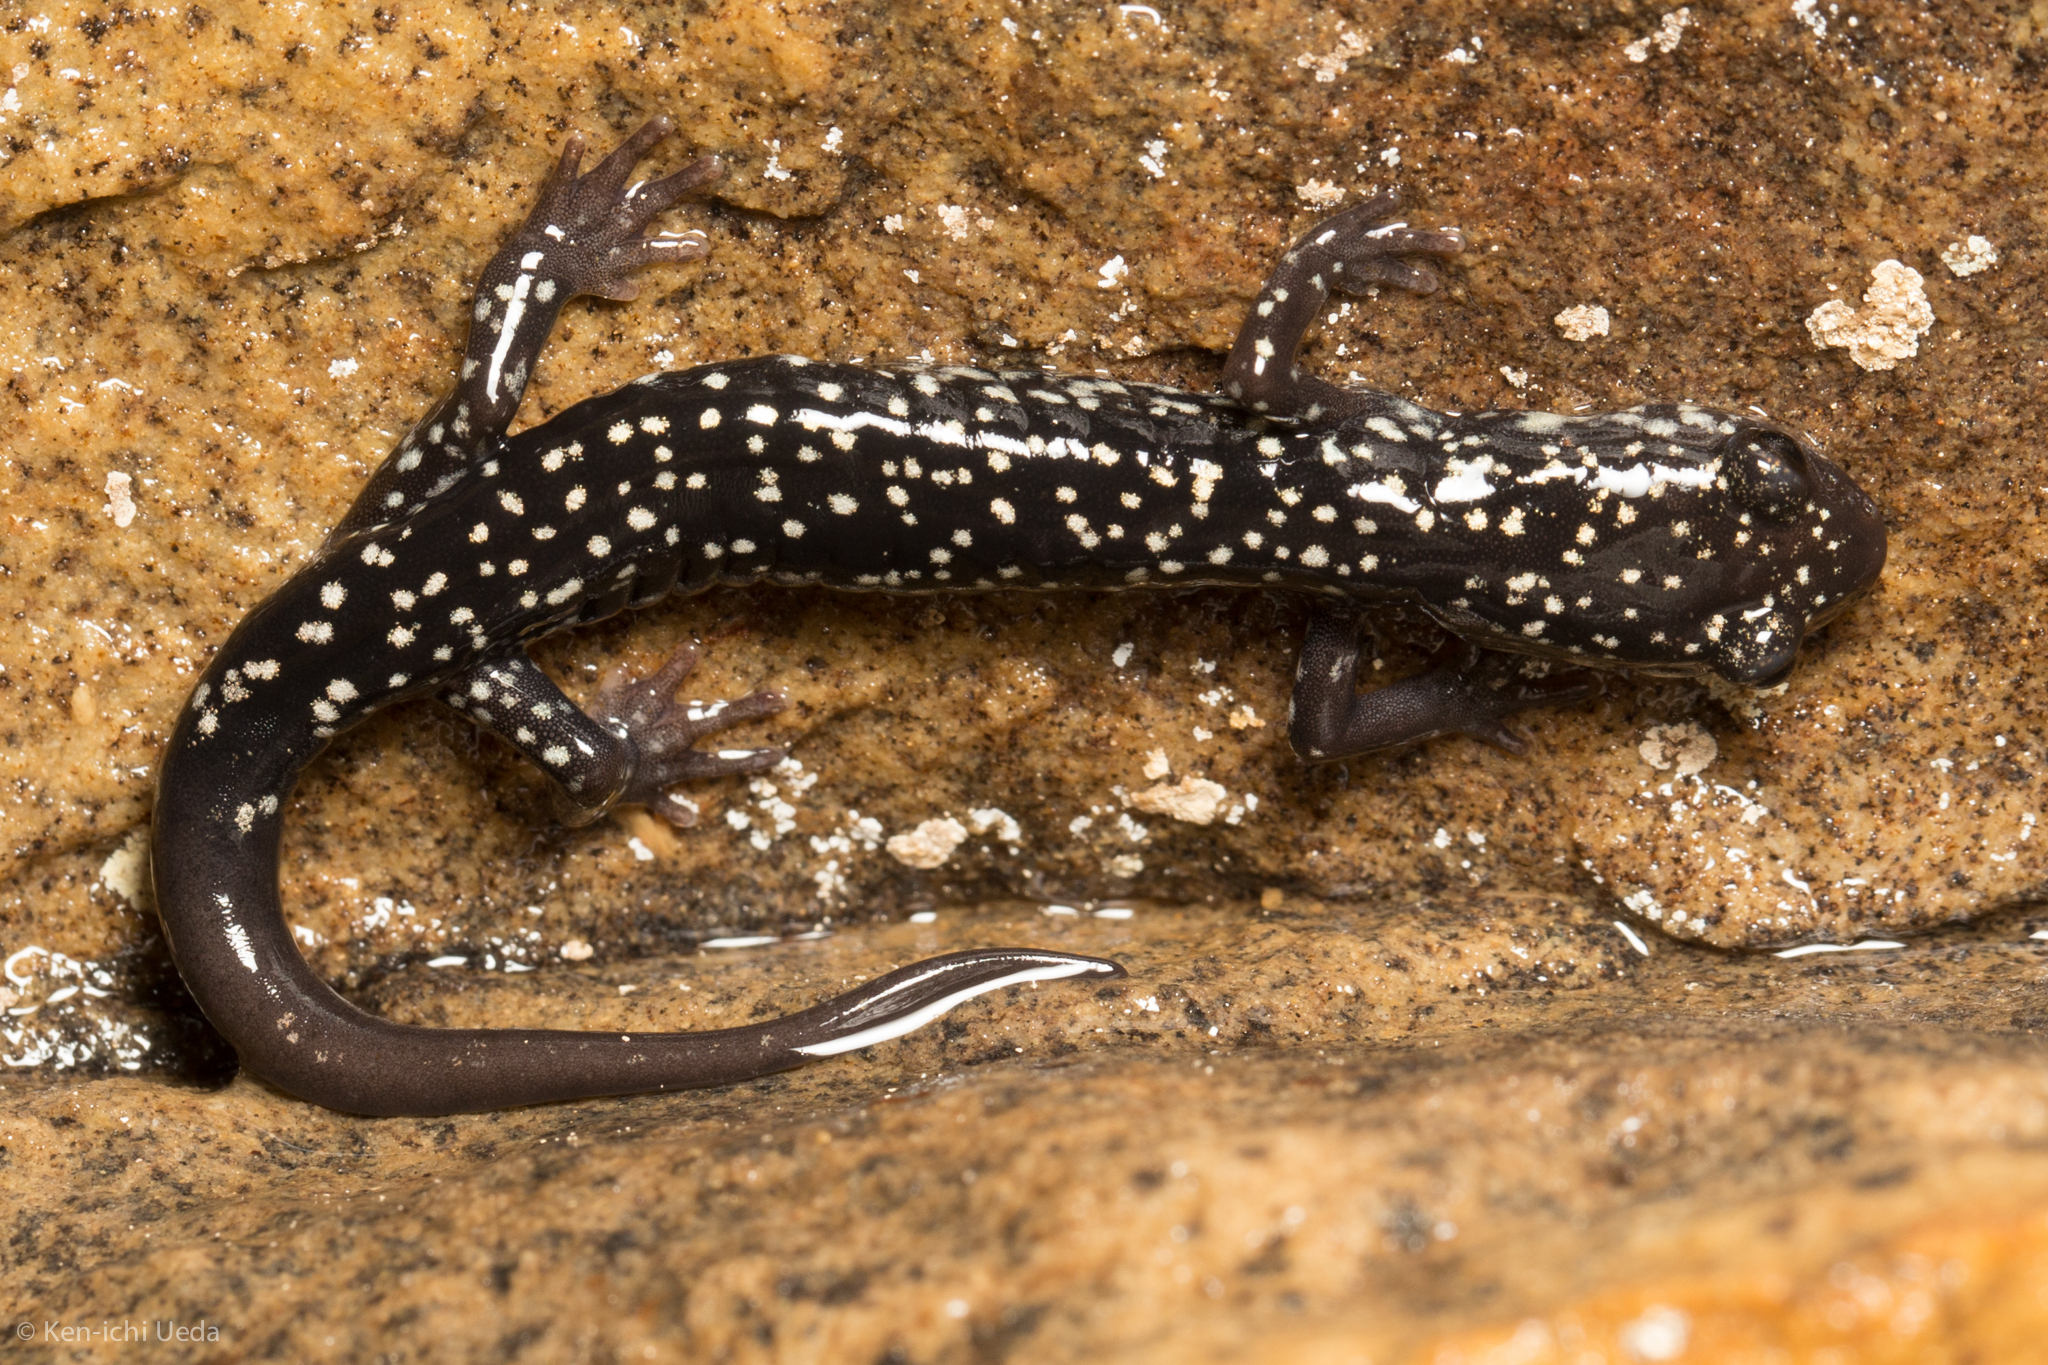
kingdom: Animalia
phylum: Chordata
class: Amphibia
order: Caudata
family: Plethodontidae
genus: Plethodon
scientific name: Plethodon glutinosus
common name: Northern slimy salamander
